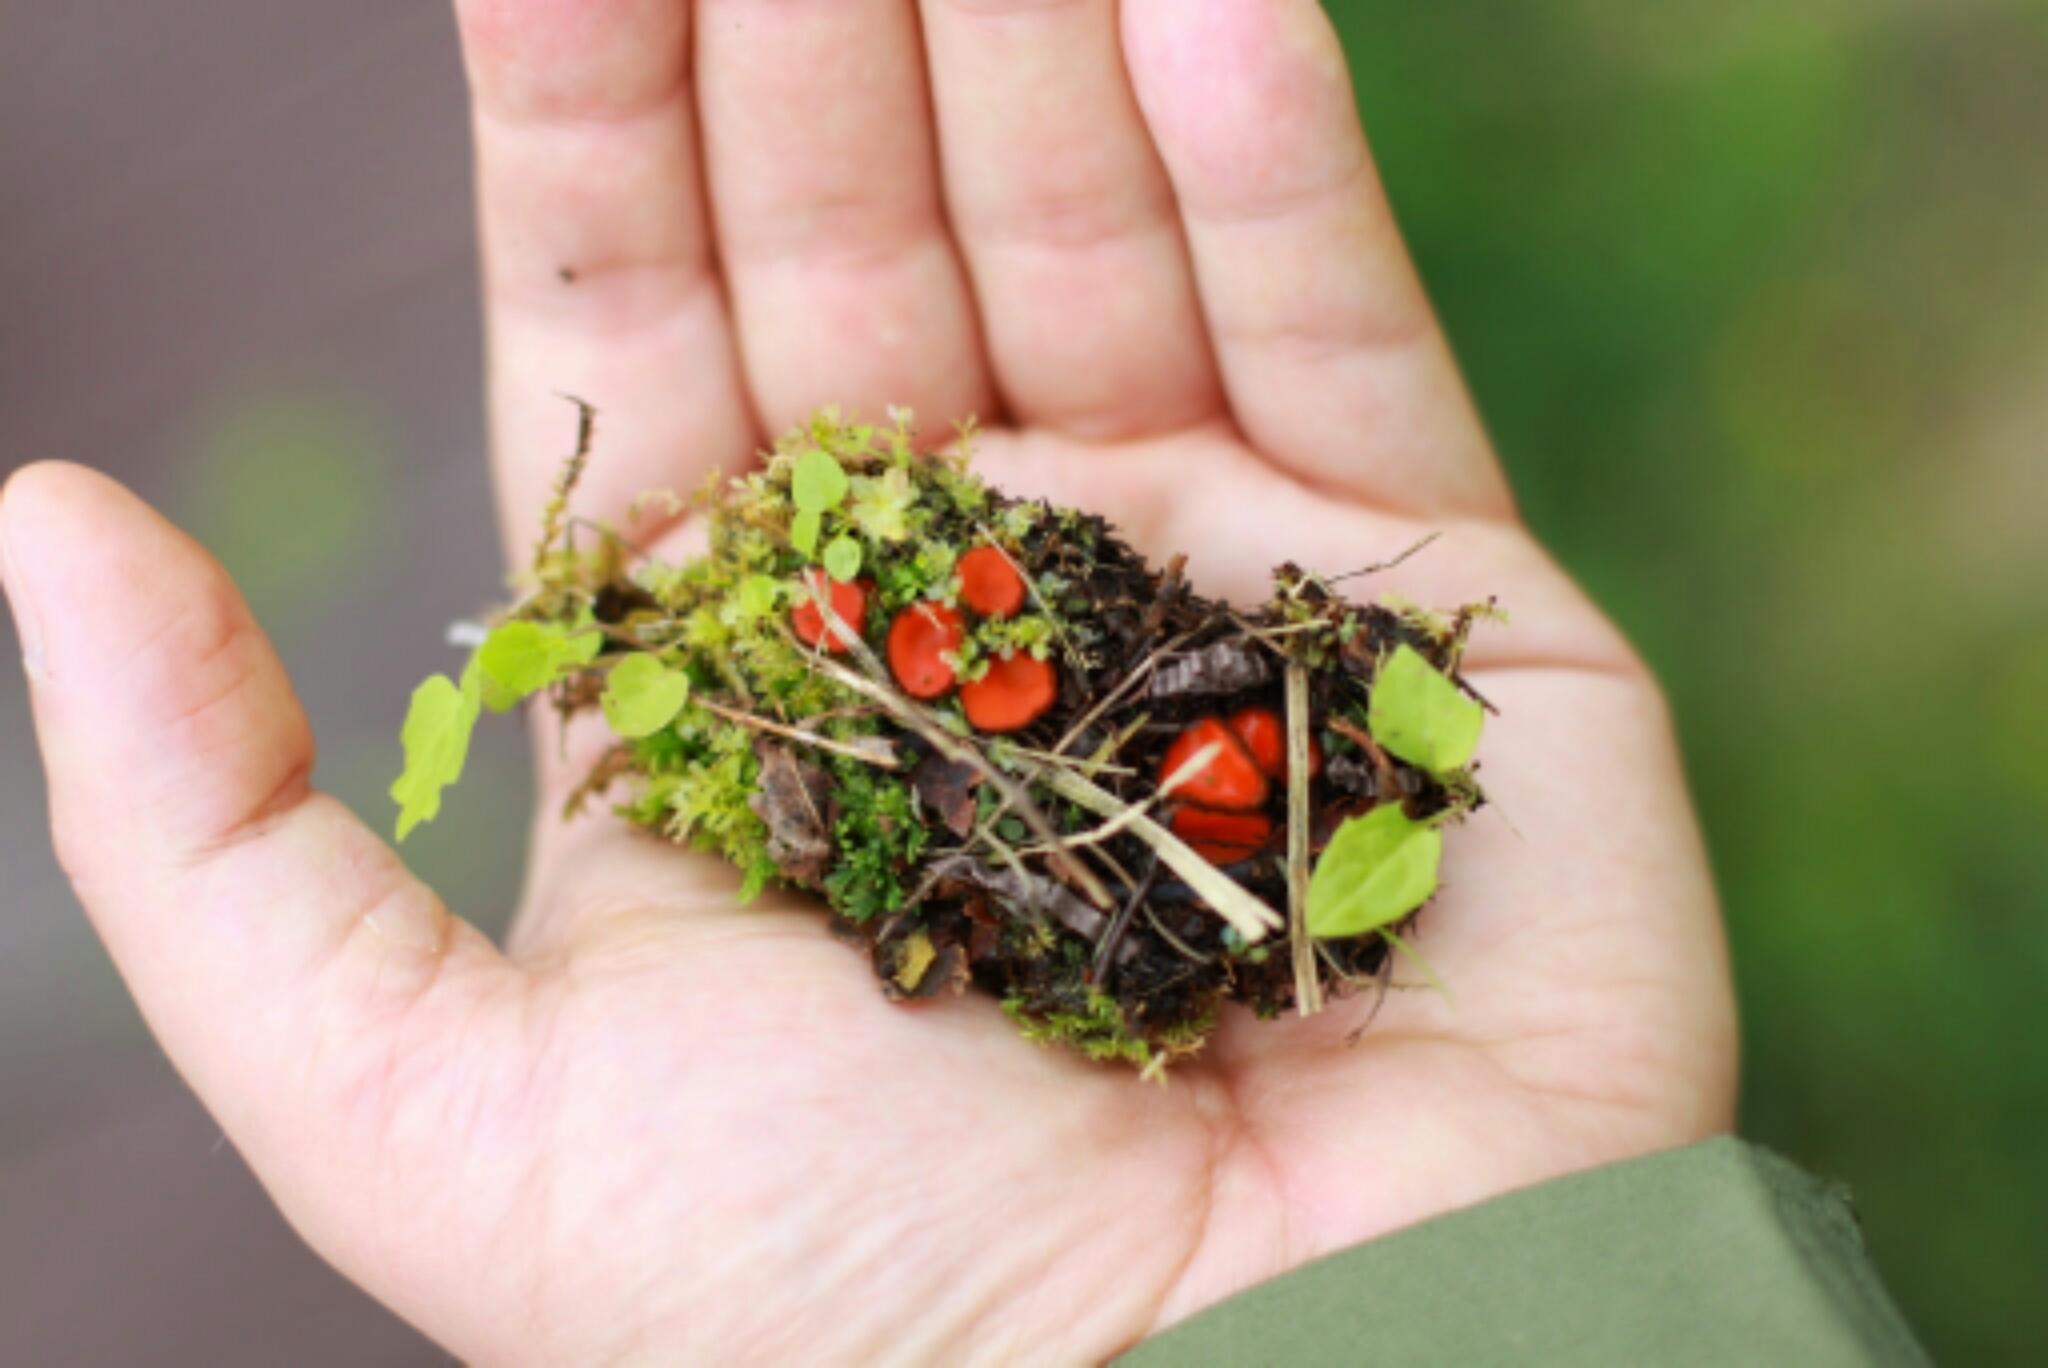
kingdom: Fungi
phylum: Ascomycota
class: Pezizomycetes
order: Pezizales
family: Pyronemataceae
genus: Scutellinia
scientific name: Scutellinia scutellata
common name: Common eyelash
